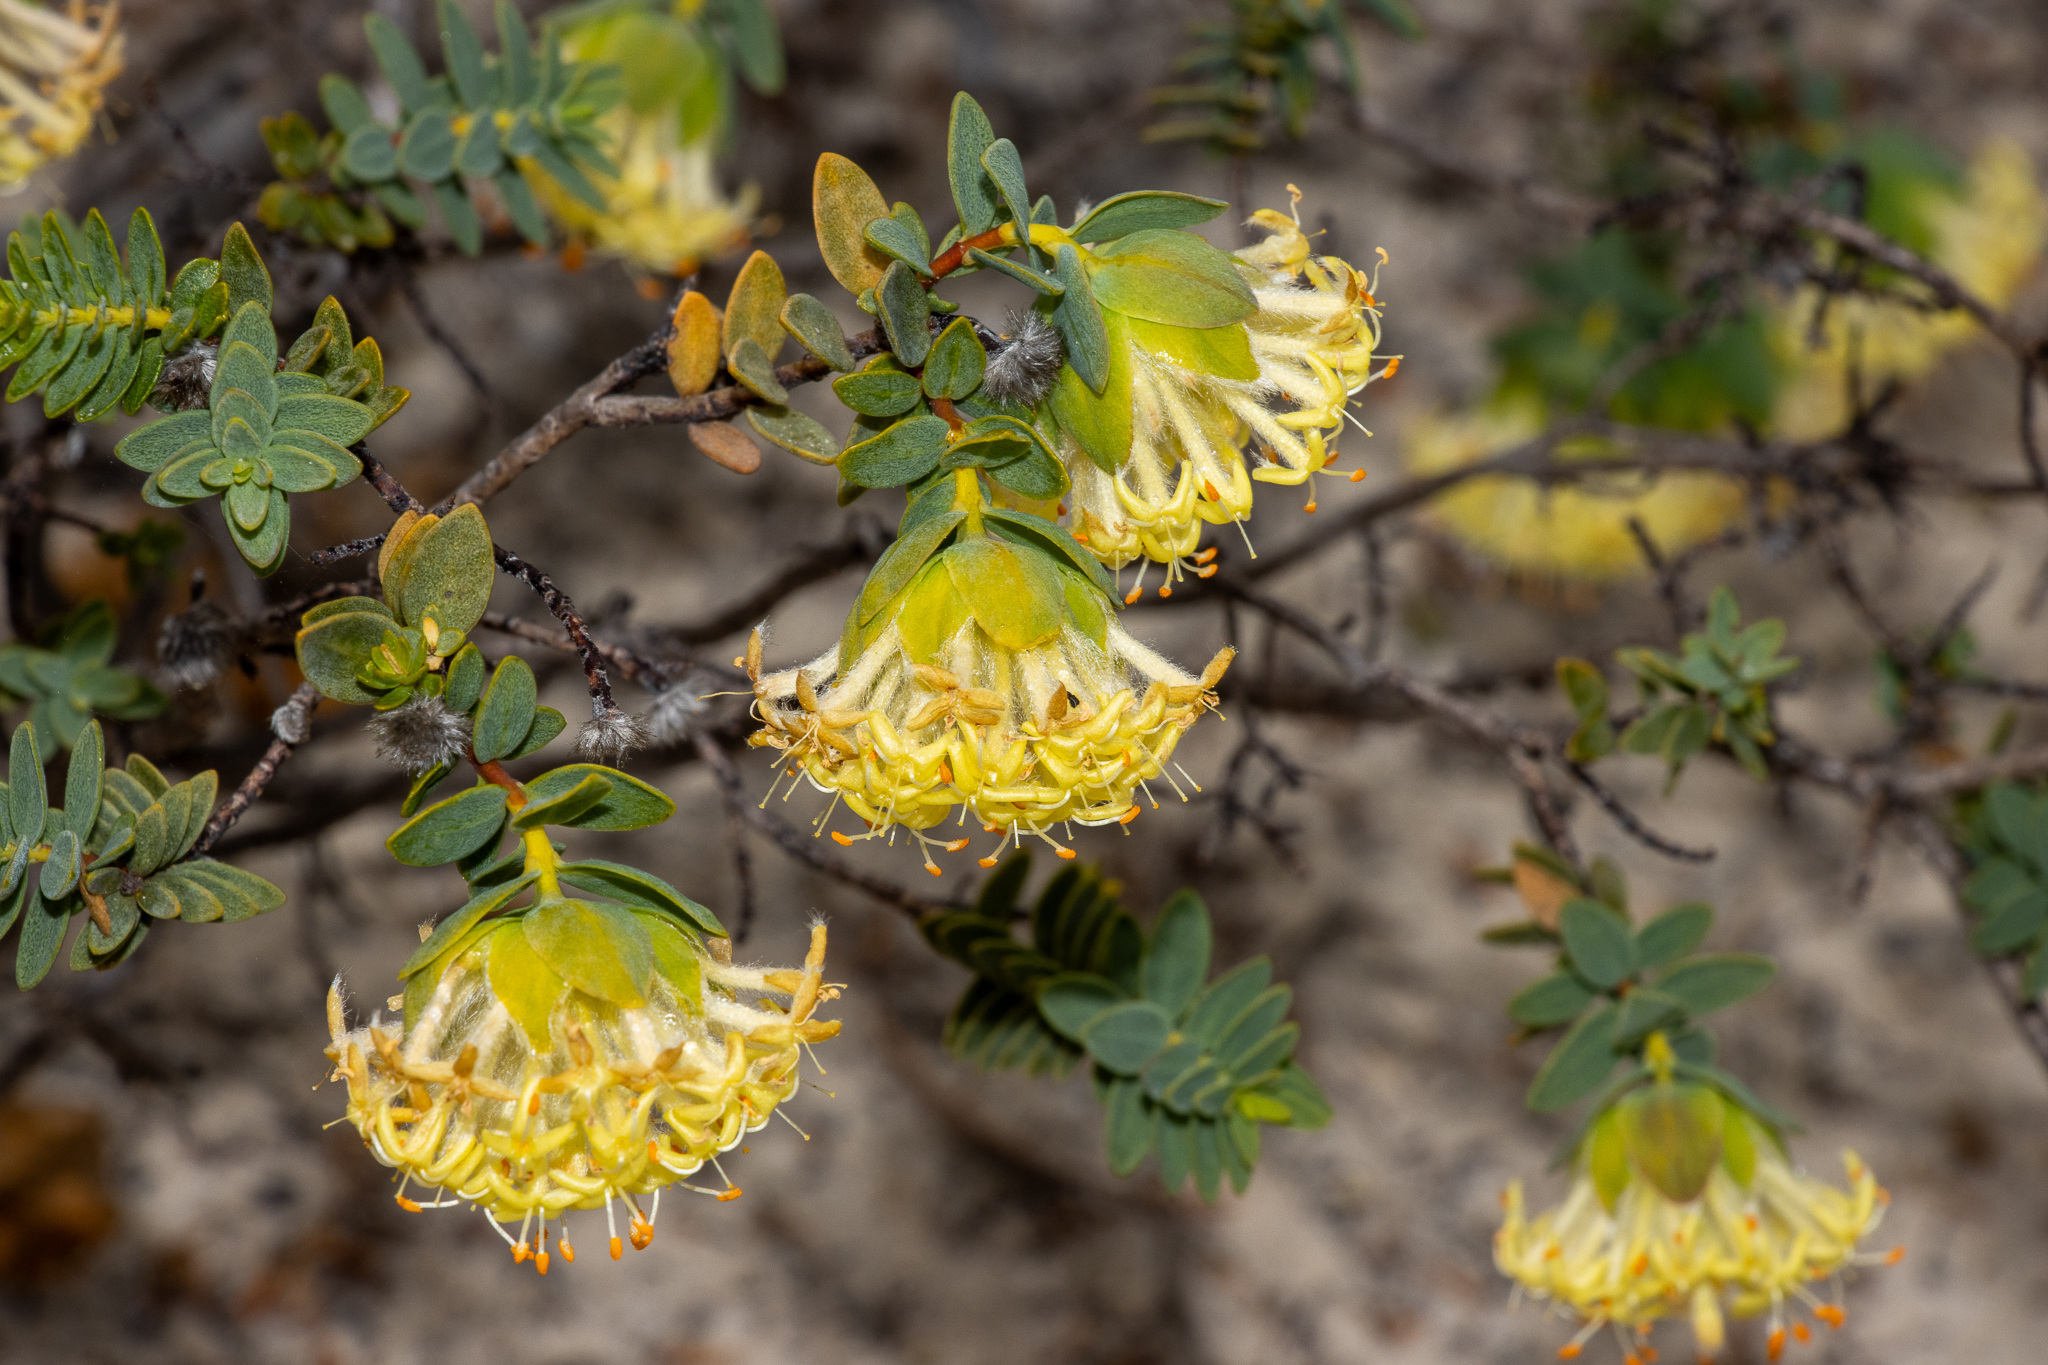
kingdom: Plantae
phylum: Tracheophyta
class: Magnoliopsida
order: Malvales
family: Thymelaeaceae
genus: Pimelea
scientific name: Pimelea suaveolens
